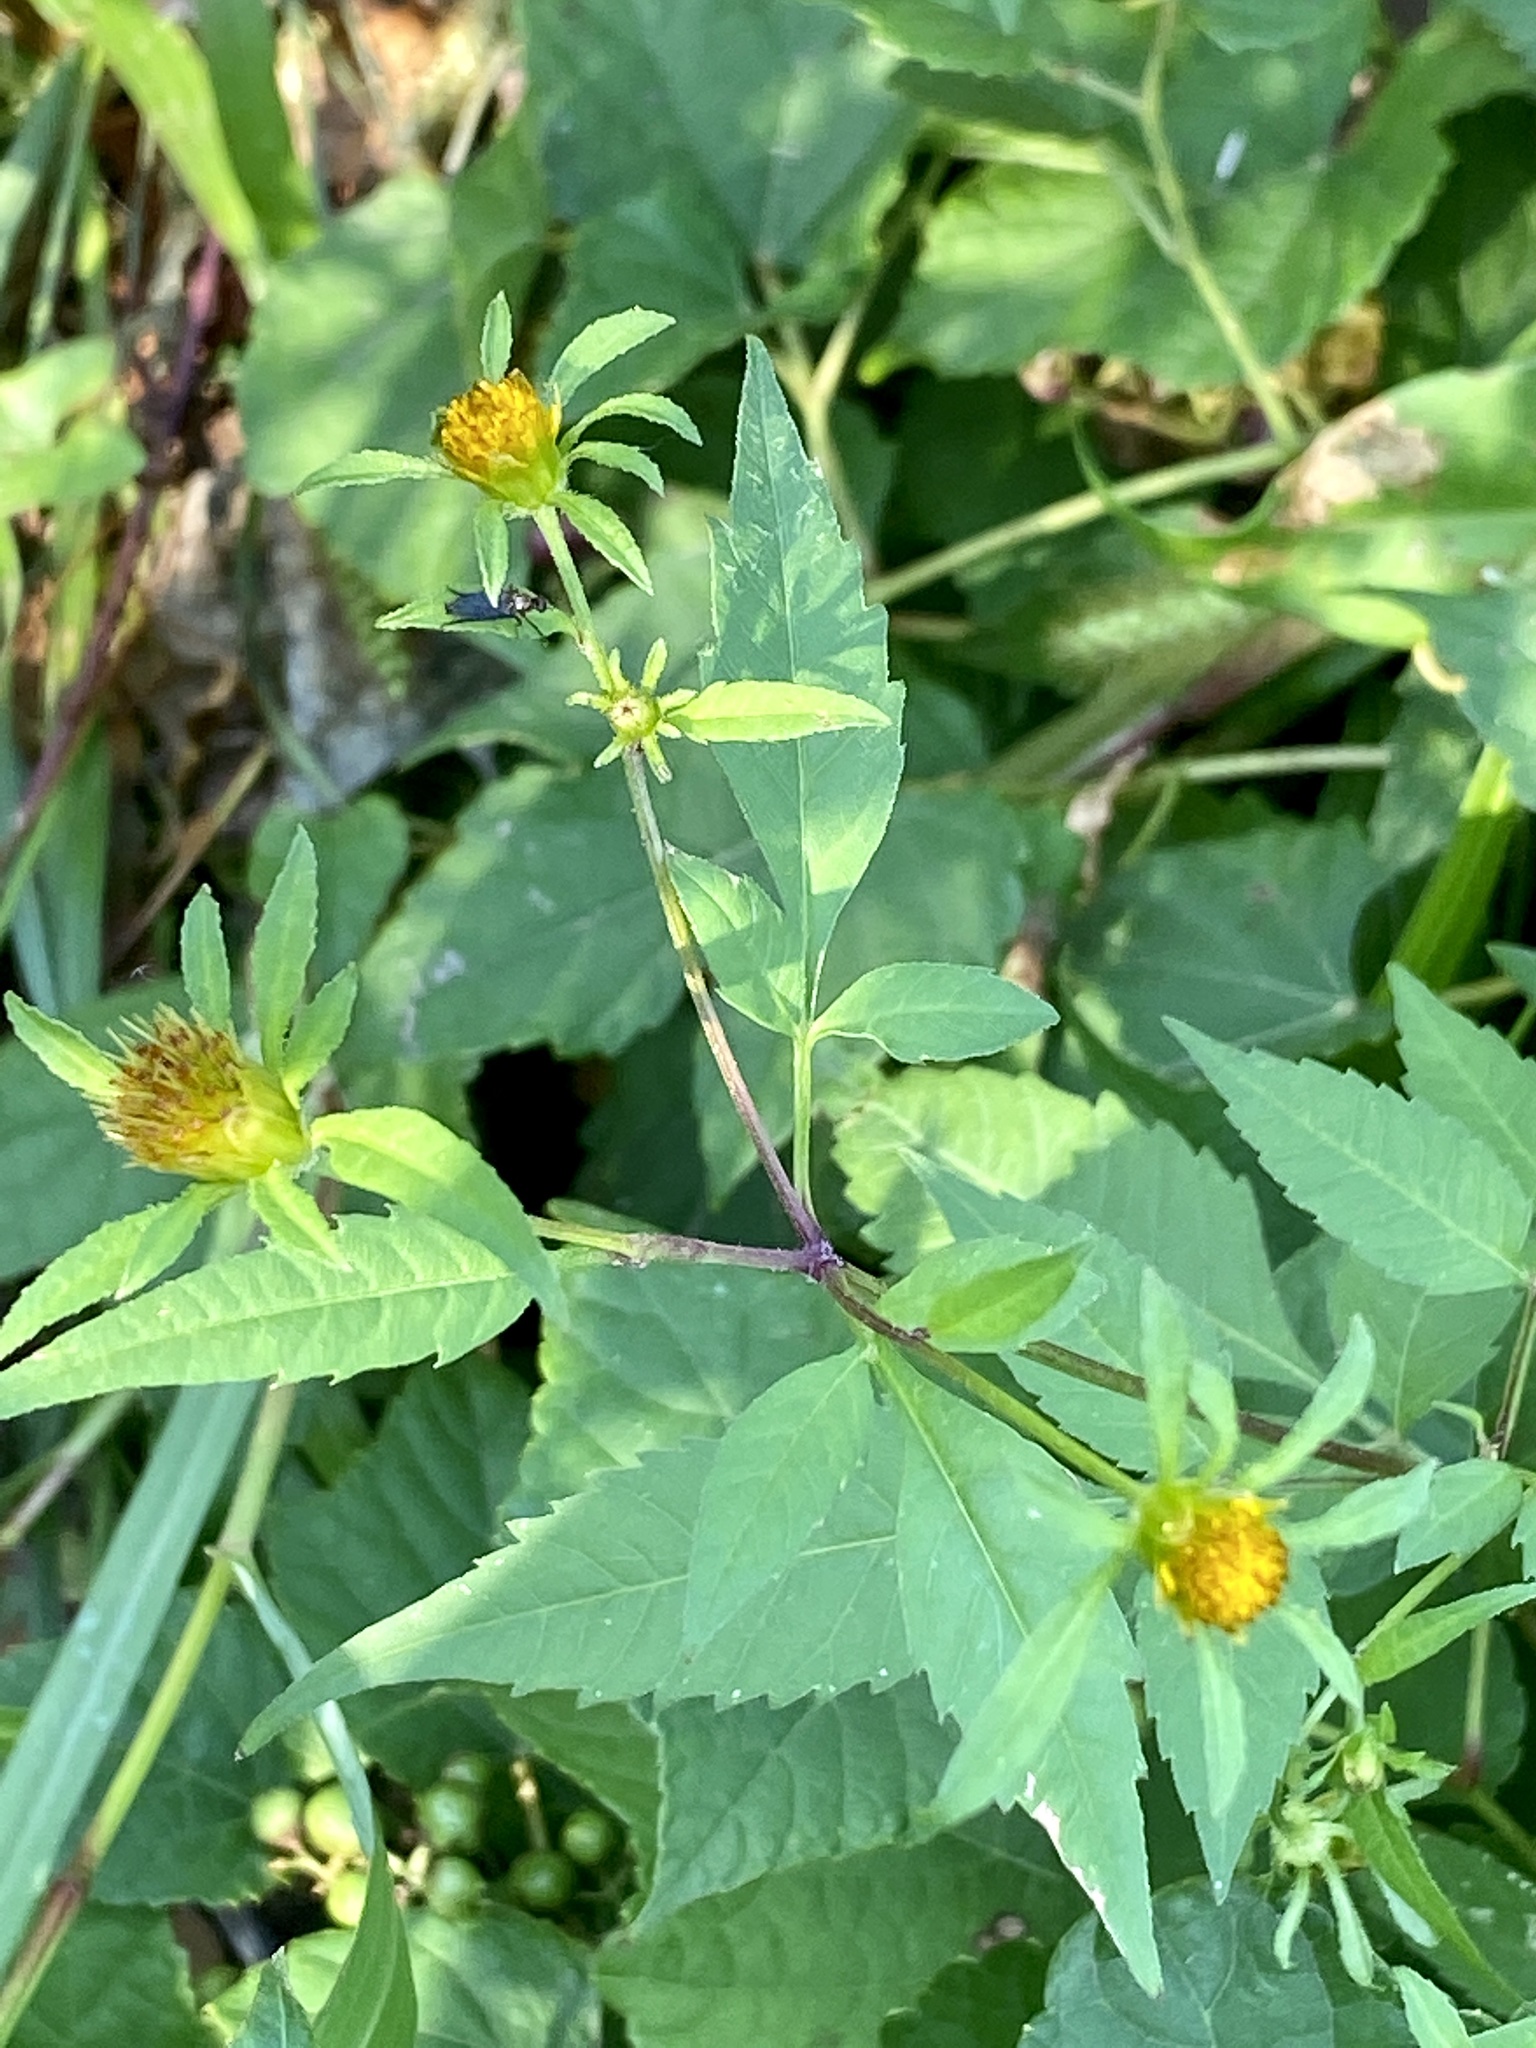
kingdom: Plantae
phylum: Tracheophyta
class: Magnoliopsida
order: Asterales
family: Asteraceae
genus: Bidens
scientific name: Bidens frondosa
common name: Beggarticks
